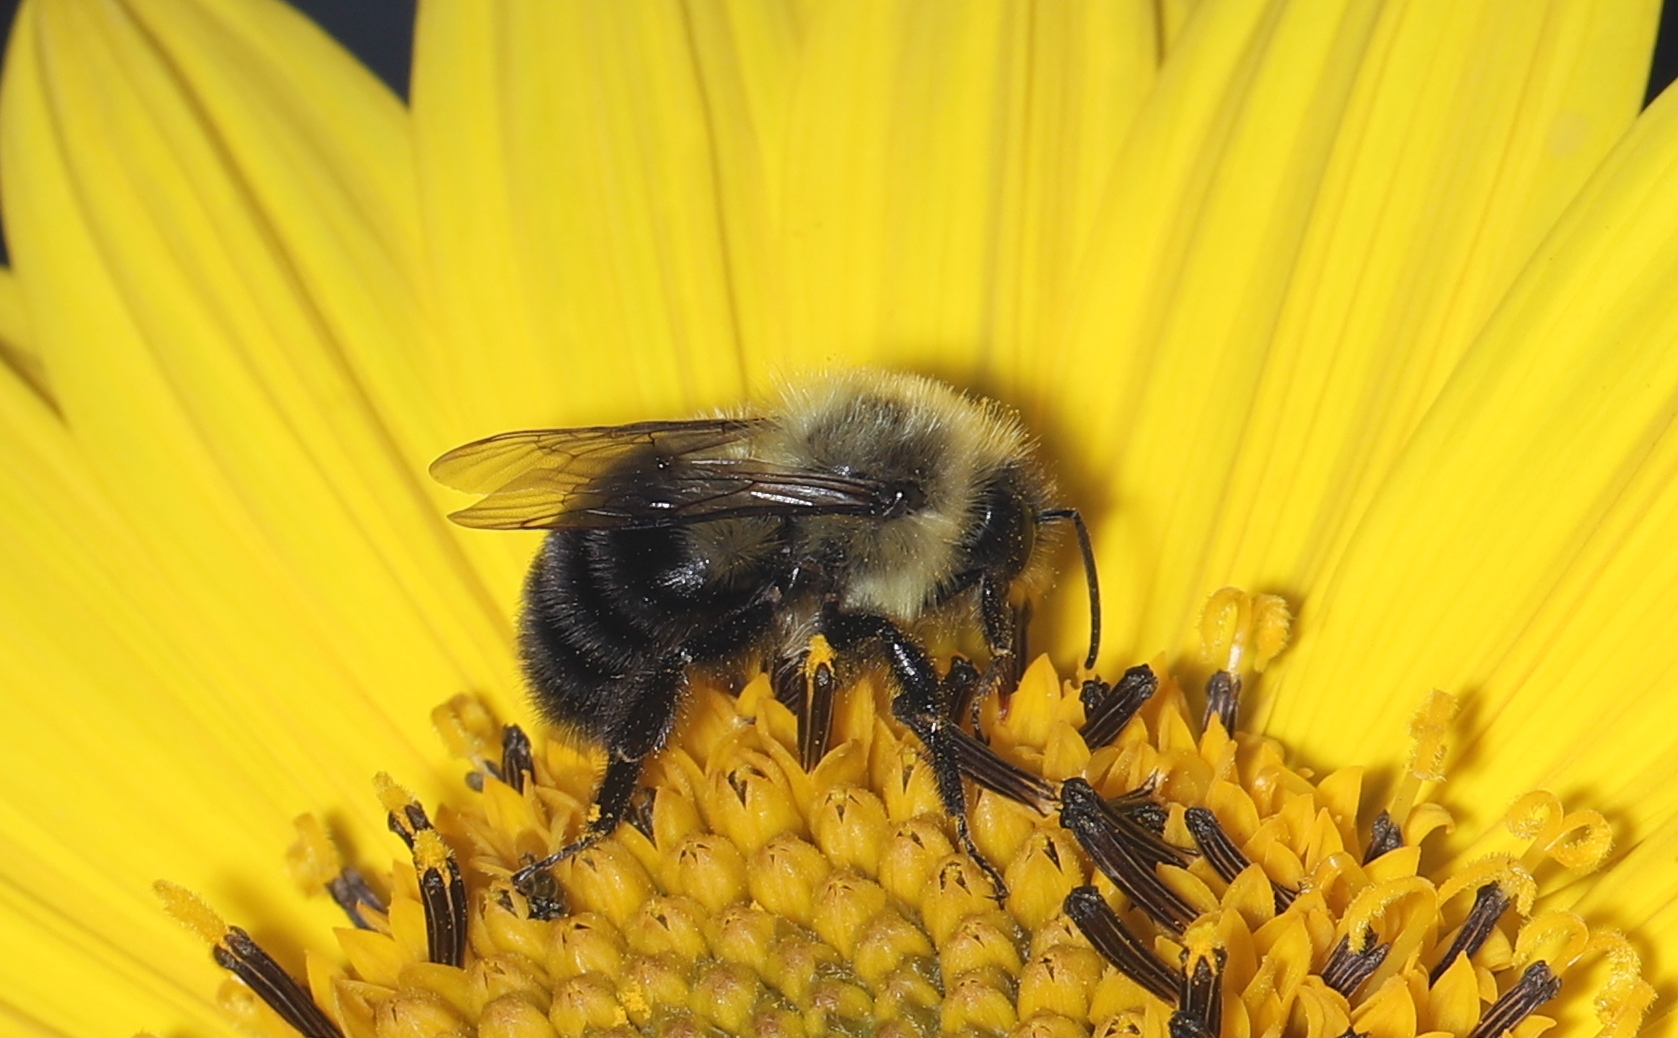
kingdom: Animalia
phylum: Arthropoda
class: Insecta
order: Hymenoptera
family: Apidae
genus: Bombus
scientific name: Bombus impatiens
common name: Common eastern bumble bee
